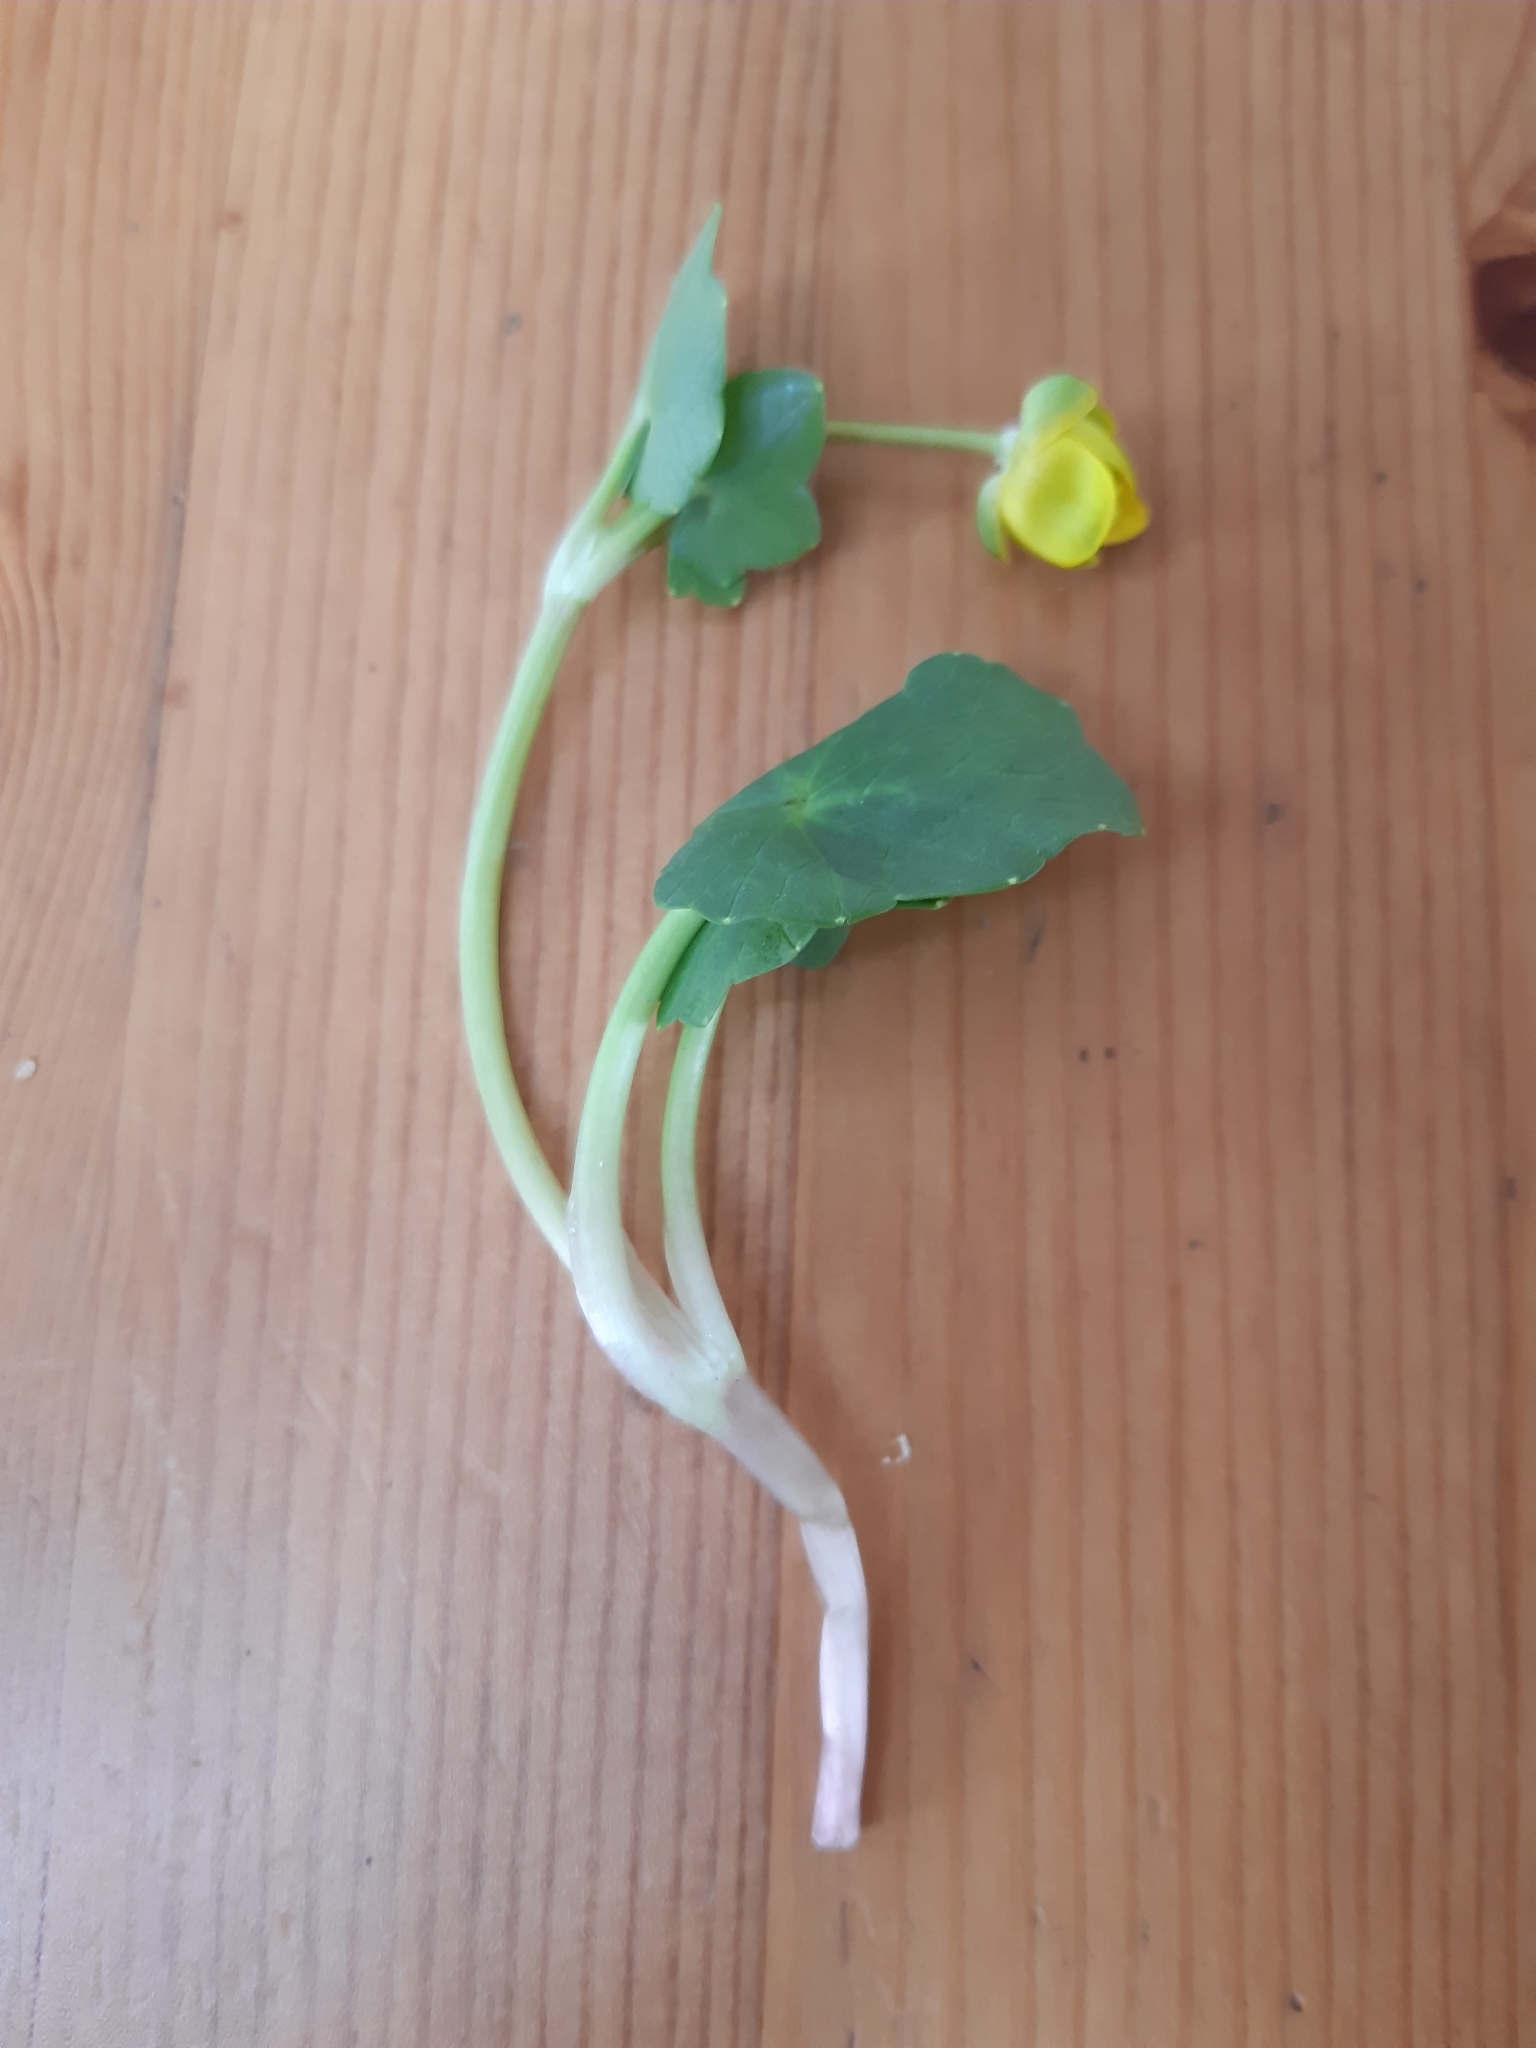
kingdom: Plantae
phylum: Tracheophyta
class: Magnoliopsida
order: Ranunculales
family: Ranunculaceae
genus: Ficaria
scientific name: Ficaria verna
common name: Lesser celandine
